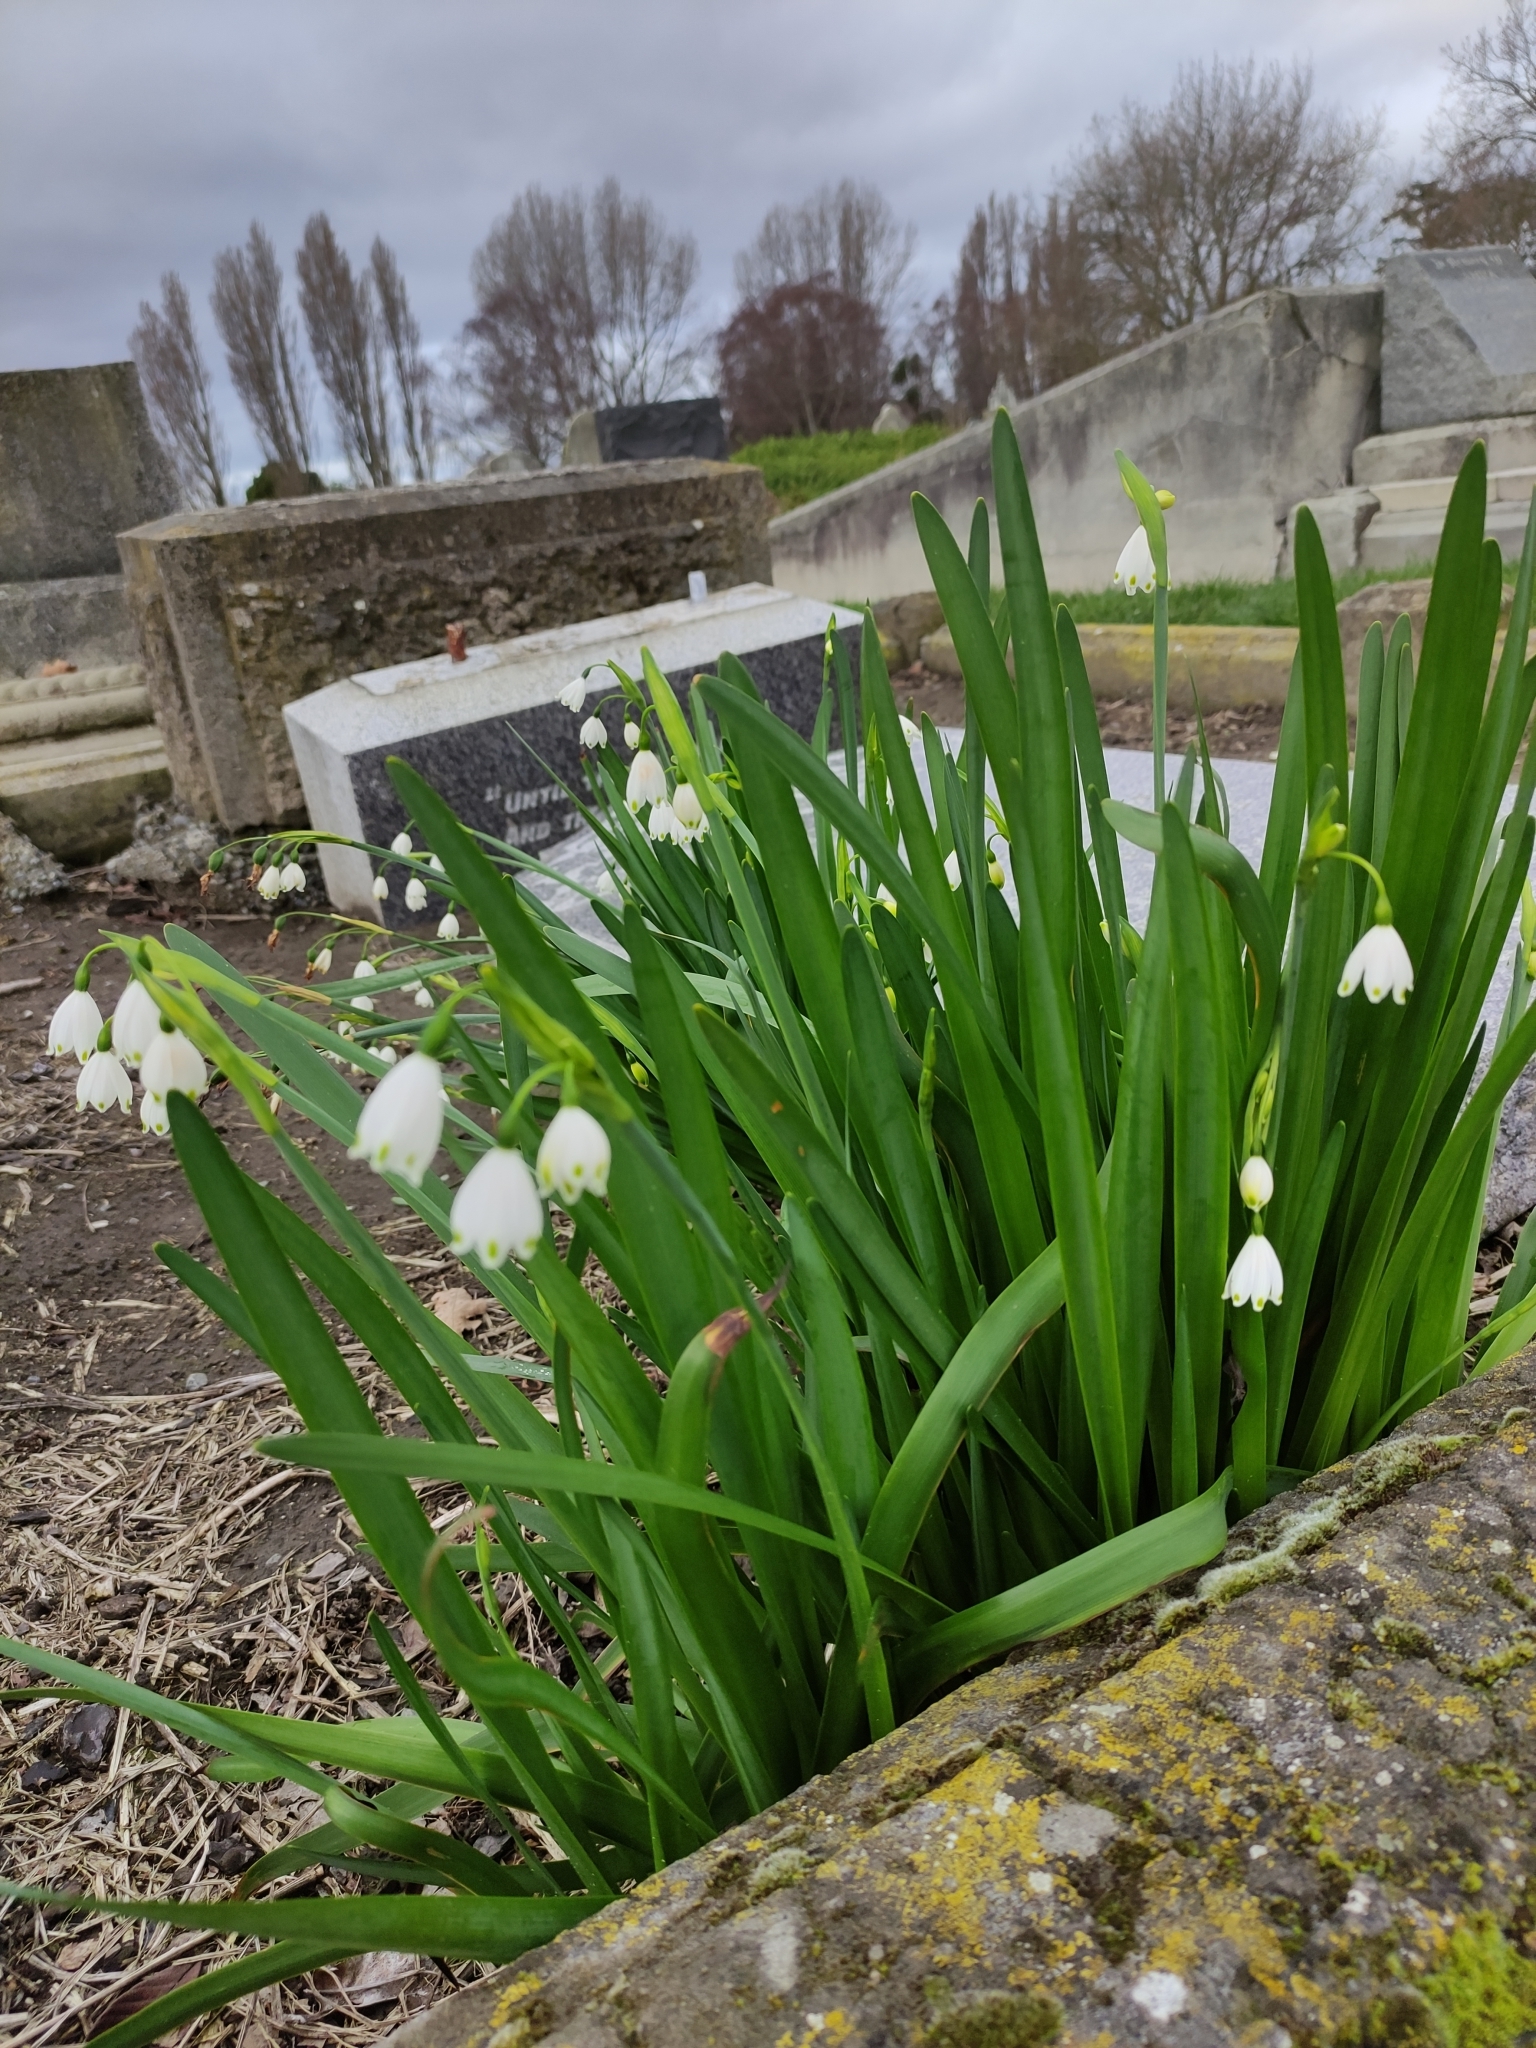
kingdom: Plantae
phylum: Tracheophyta
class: Liliopsida
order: Asparagales
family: Amaryllidaceae
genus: Leucojum
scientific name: Leucojum aestivum
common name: Summer snowflake
